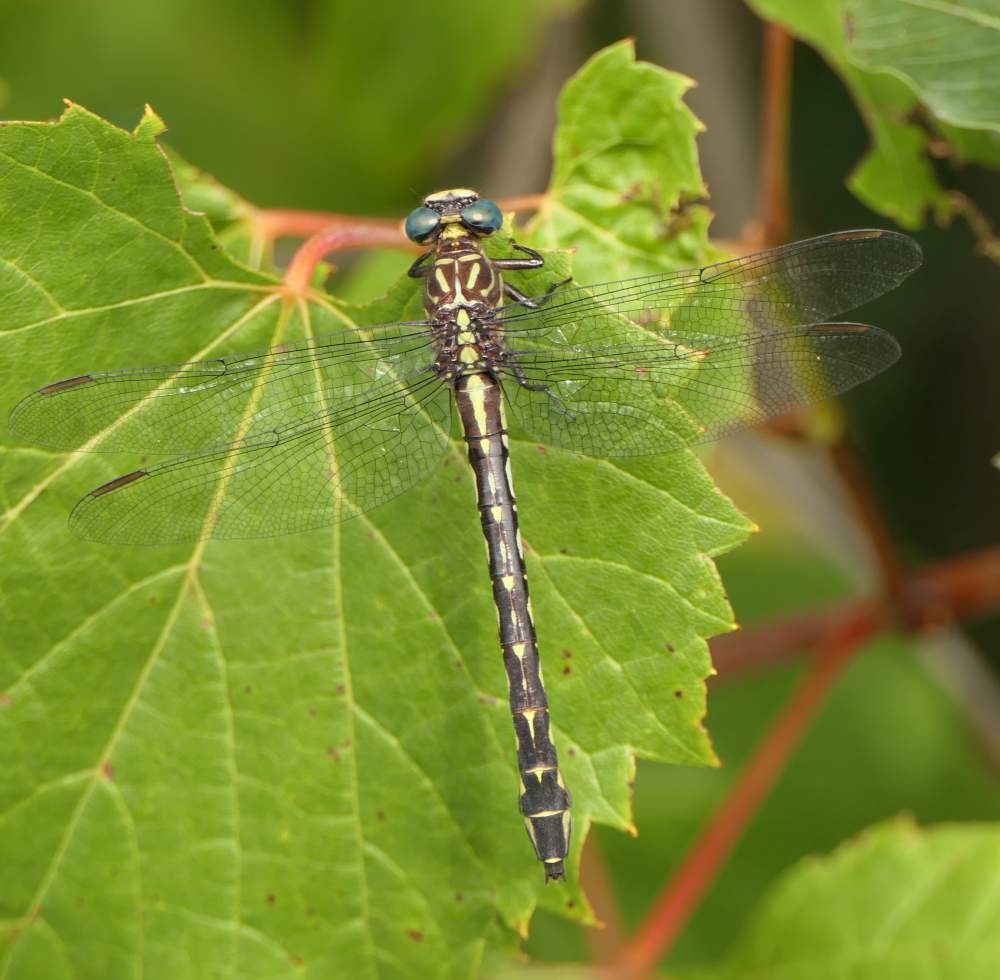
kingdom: Animalia
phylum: Arthropoda
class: Insecta
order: Odonata
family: Gomphidae
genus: Stylurus
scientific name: Stylurus notatus
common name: Elusive clubtail
